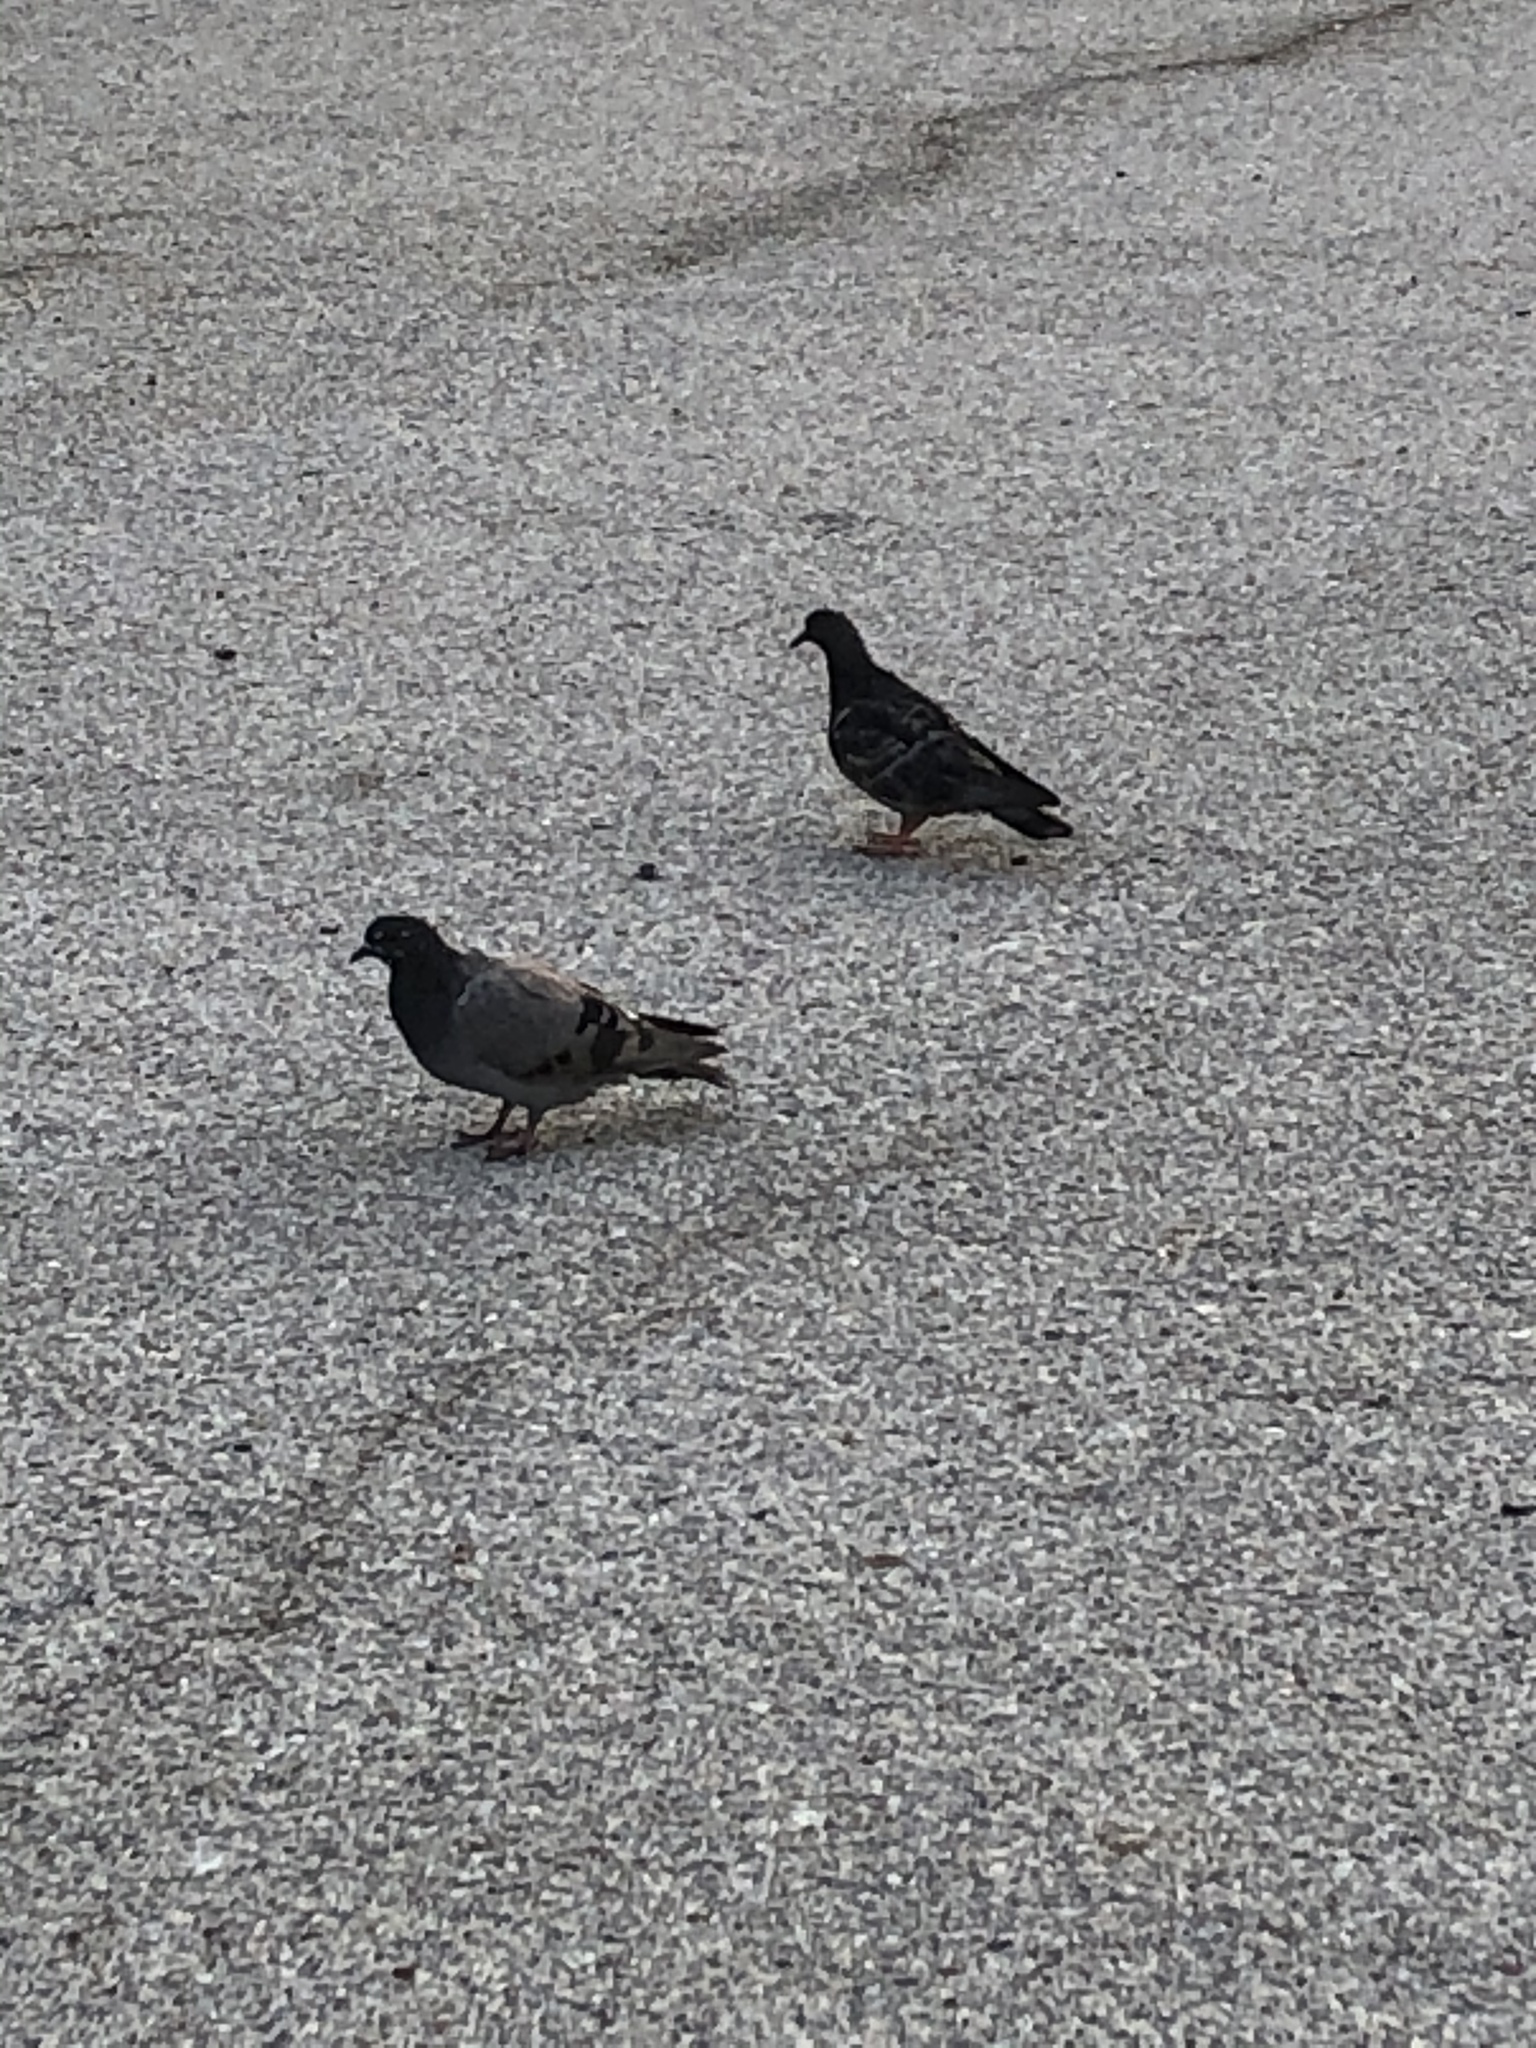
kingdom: Animalia
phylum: Chordata
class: Aves
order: Columbiformes
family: Columbidae
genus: Columba
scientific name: Columba livia
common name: Rock pigeon
